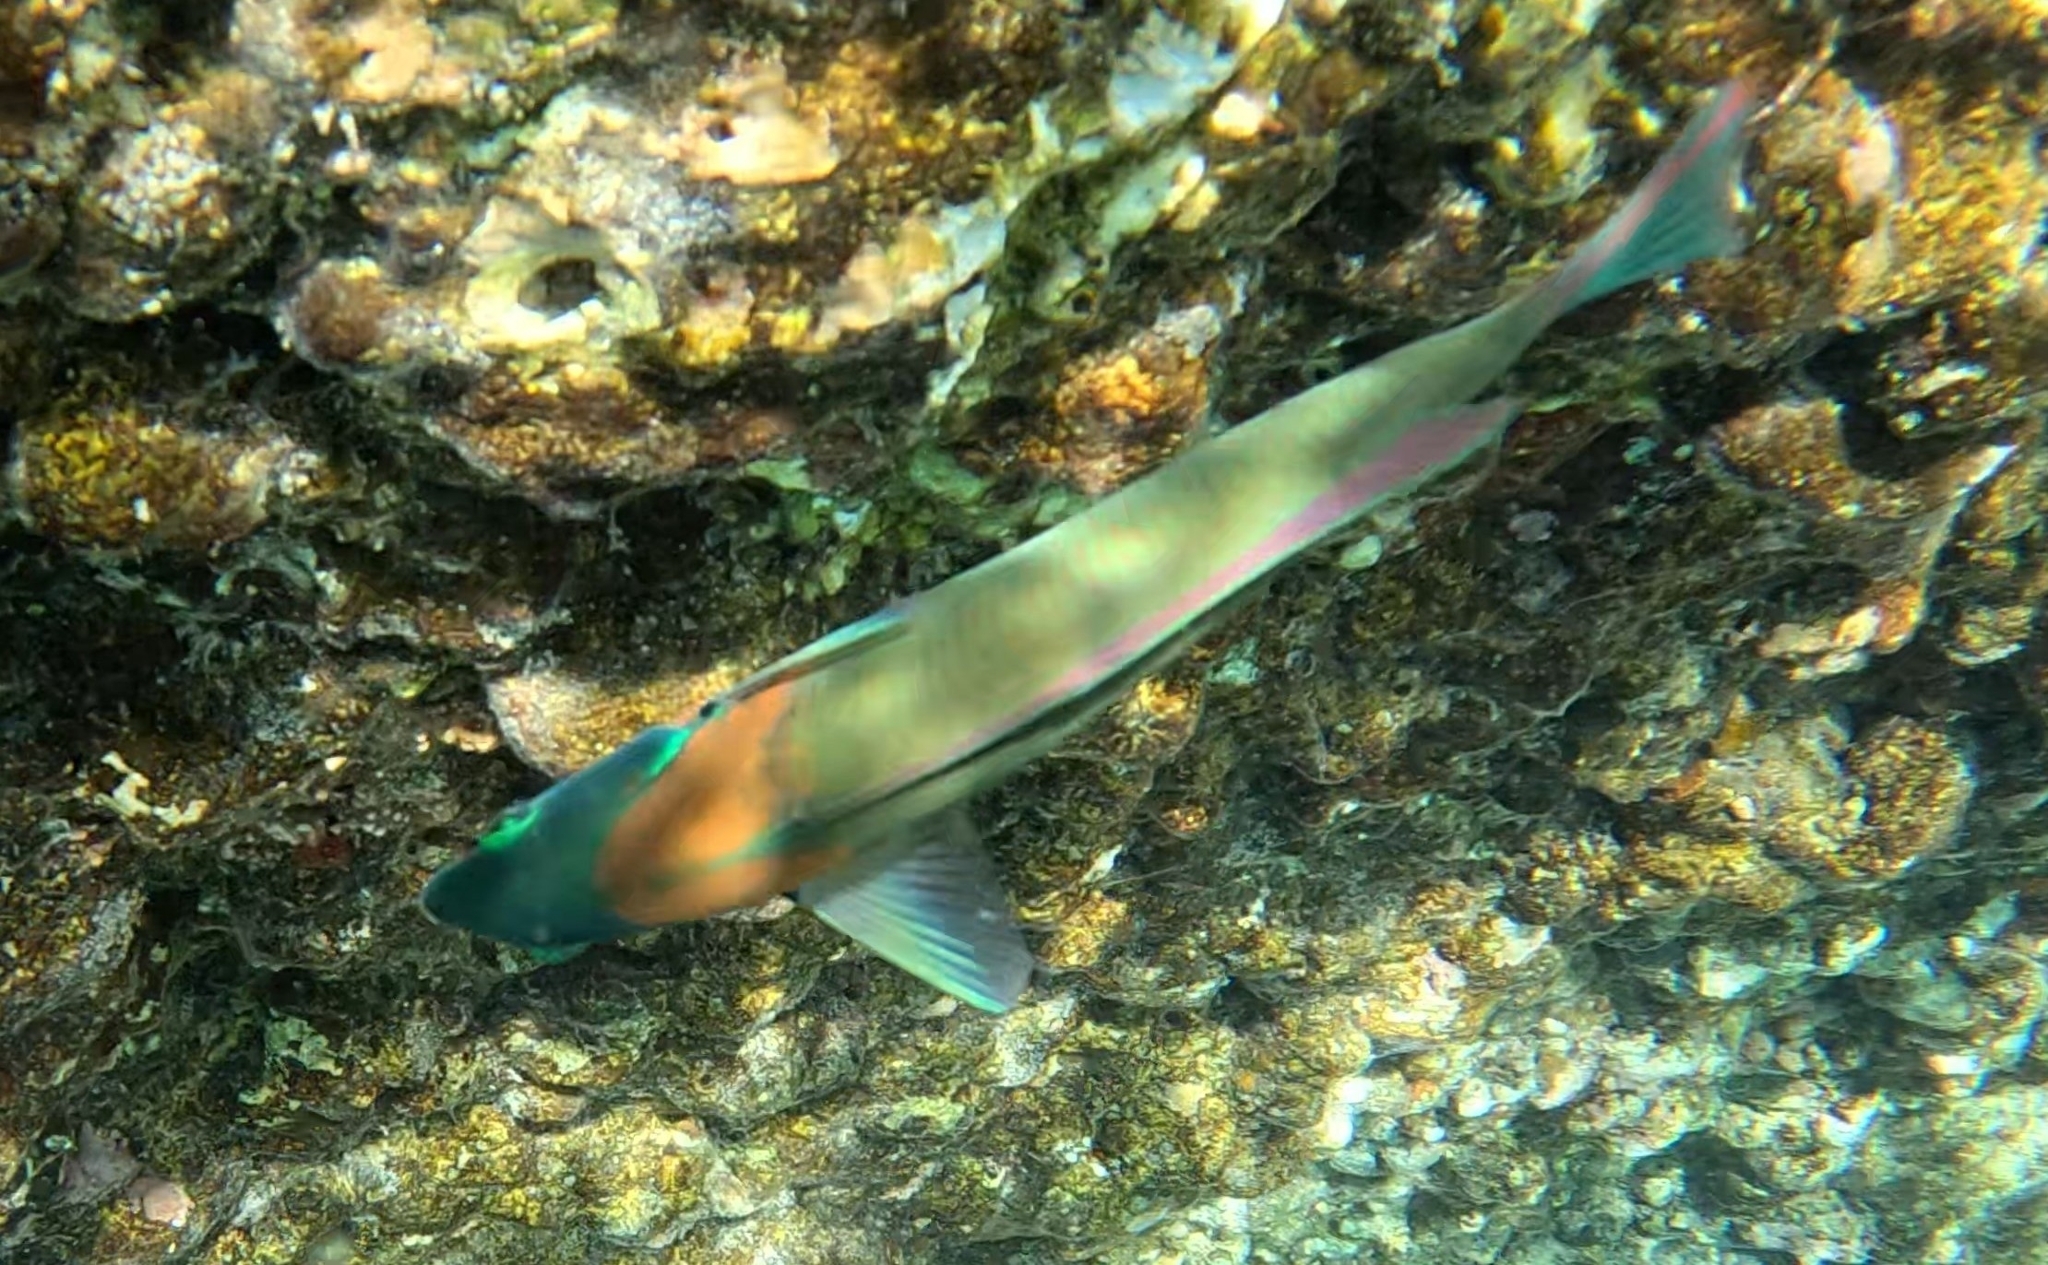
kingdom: Animalia
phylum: Chordata
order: Perciformes
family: Labridae
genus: Thalassoma
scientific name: Thalassoma duperrey
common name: Saddle wrasse
